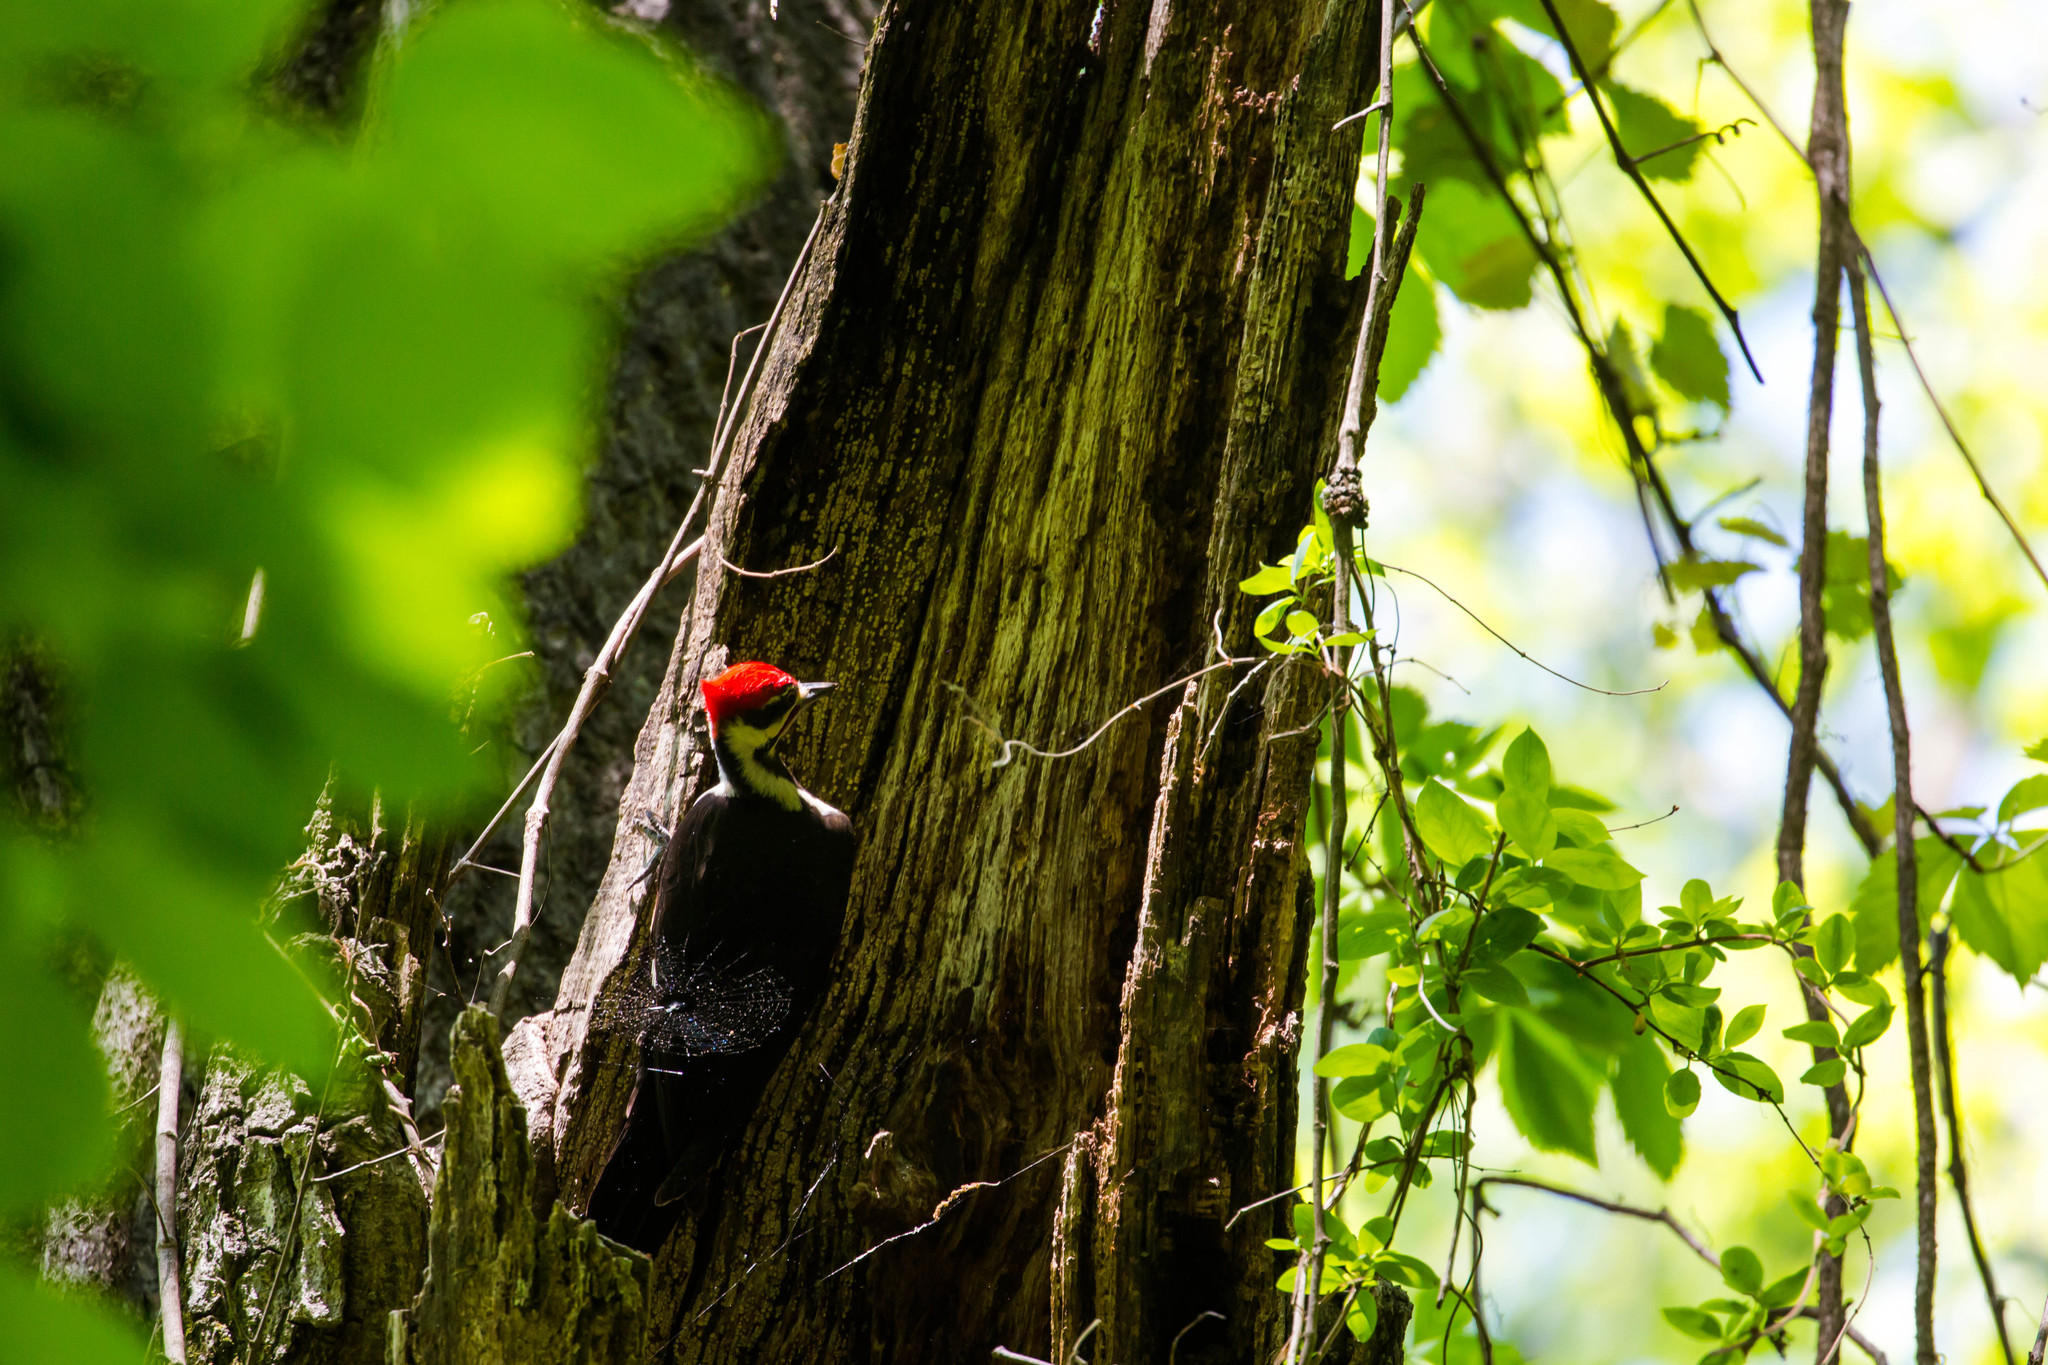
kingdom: Animalia
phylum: Chordata
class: Aves
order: Piciformes
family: Picidae
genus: Dryocopus
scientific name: Dryocopus pileatus
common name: Pileated woodpecker
